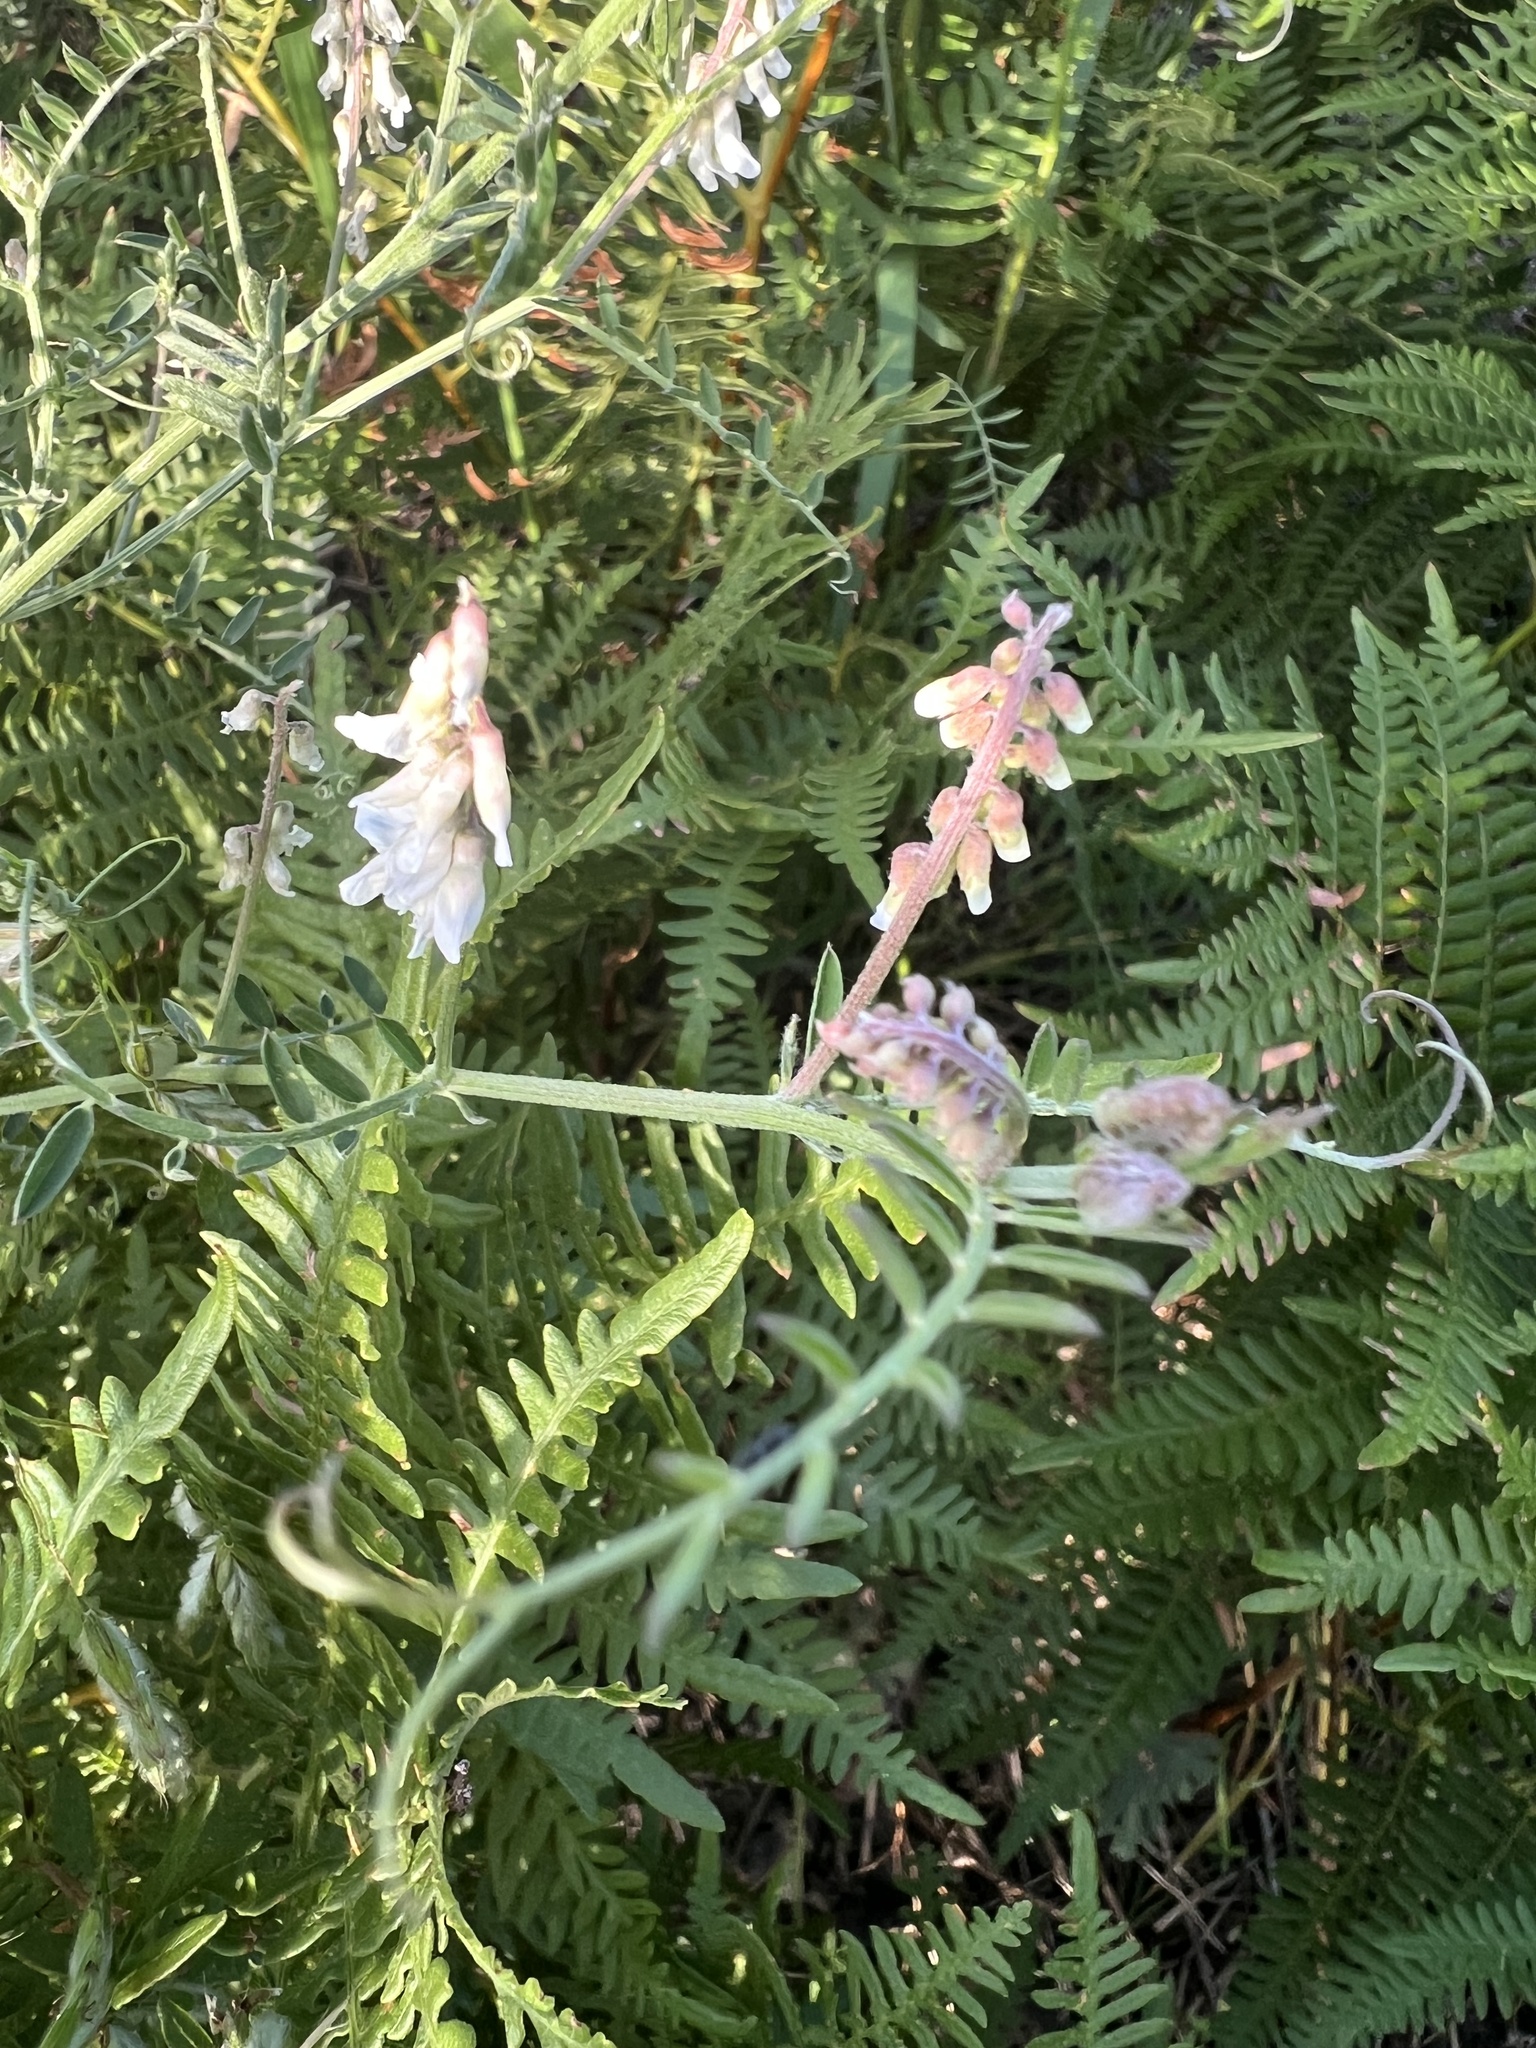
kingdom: Plantae
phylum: Tracheophyta
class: Magnoliopsida
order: Fabales
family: Fabaceae
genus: Vicia
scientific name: Vicia pulchella
